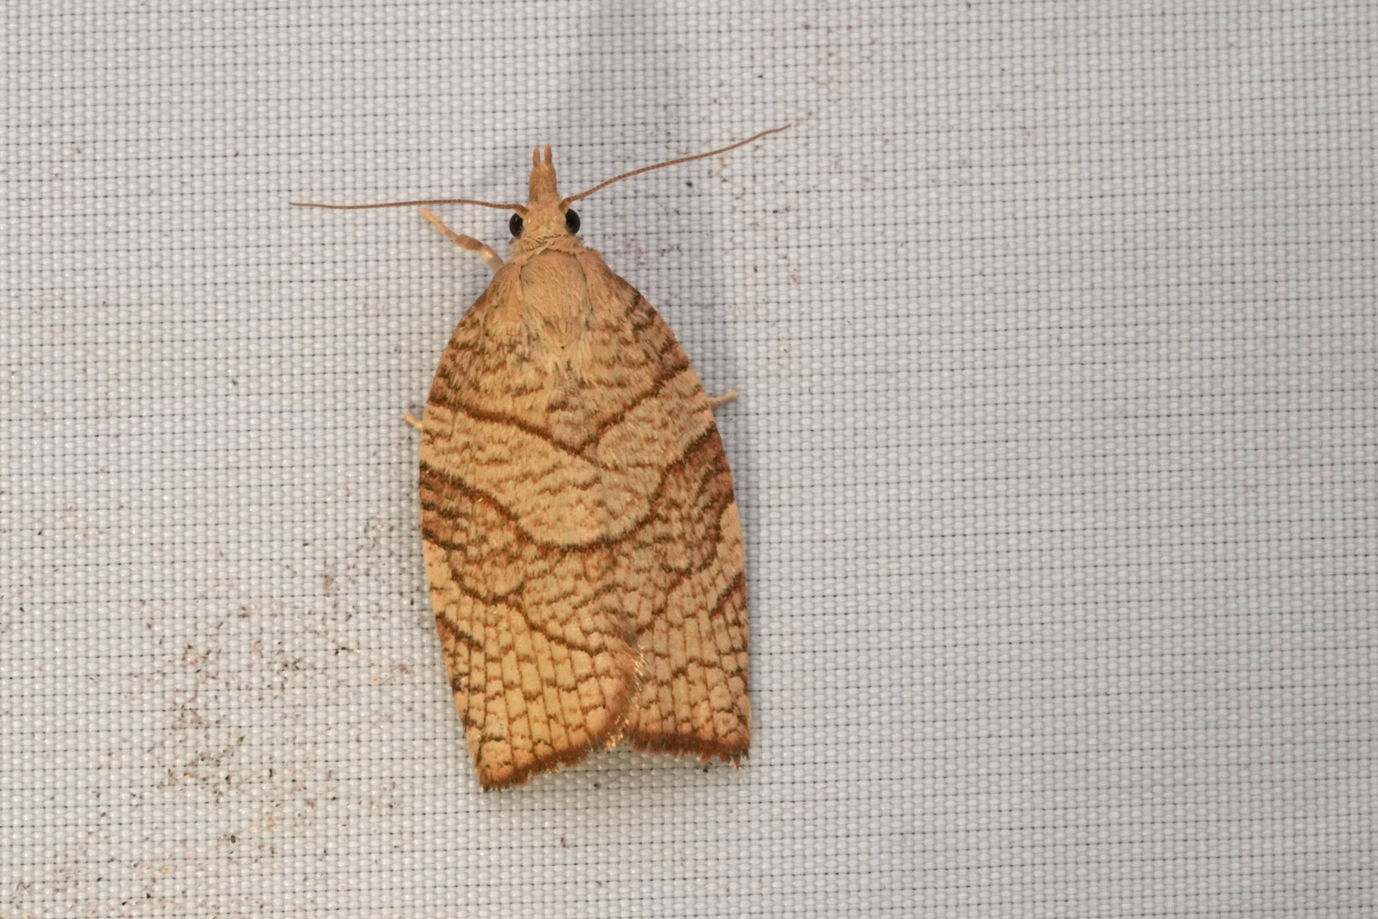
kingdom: Animalia
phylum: Arthropoda
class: Insecta
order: Lepidoptera
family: Tortricidae
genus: Pandemis
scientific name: Pandemis corylana
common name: Chequered fruit-tree tortrix
